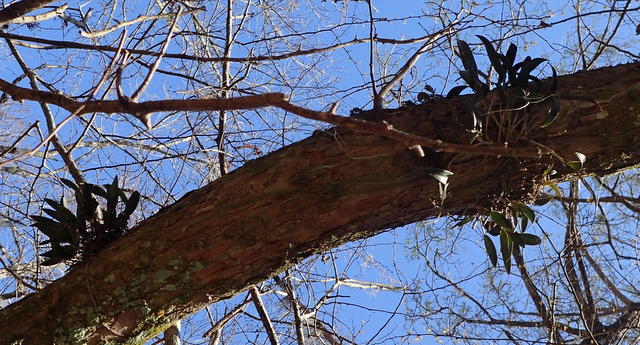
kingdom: Plantae
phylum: Tracheophyta
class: Liliopsida
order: Asparagales
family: Orchidaceae
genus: Epidendrum
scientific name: Epidendrum conopseum
